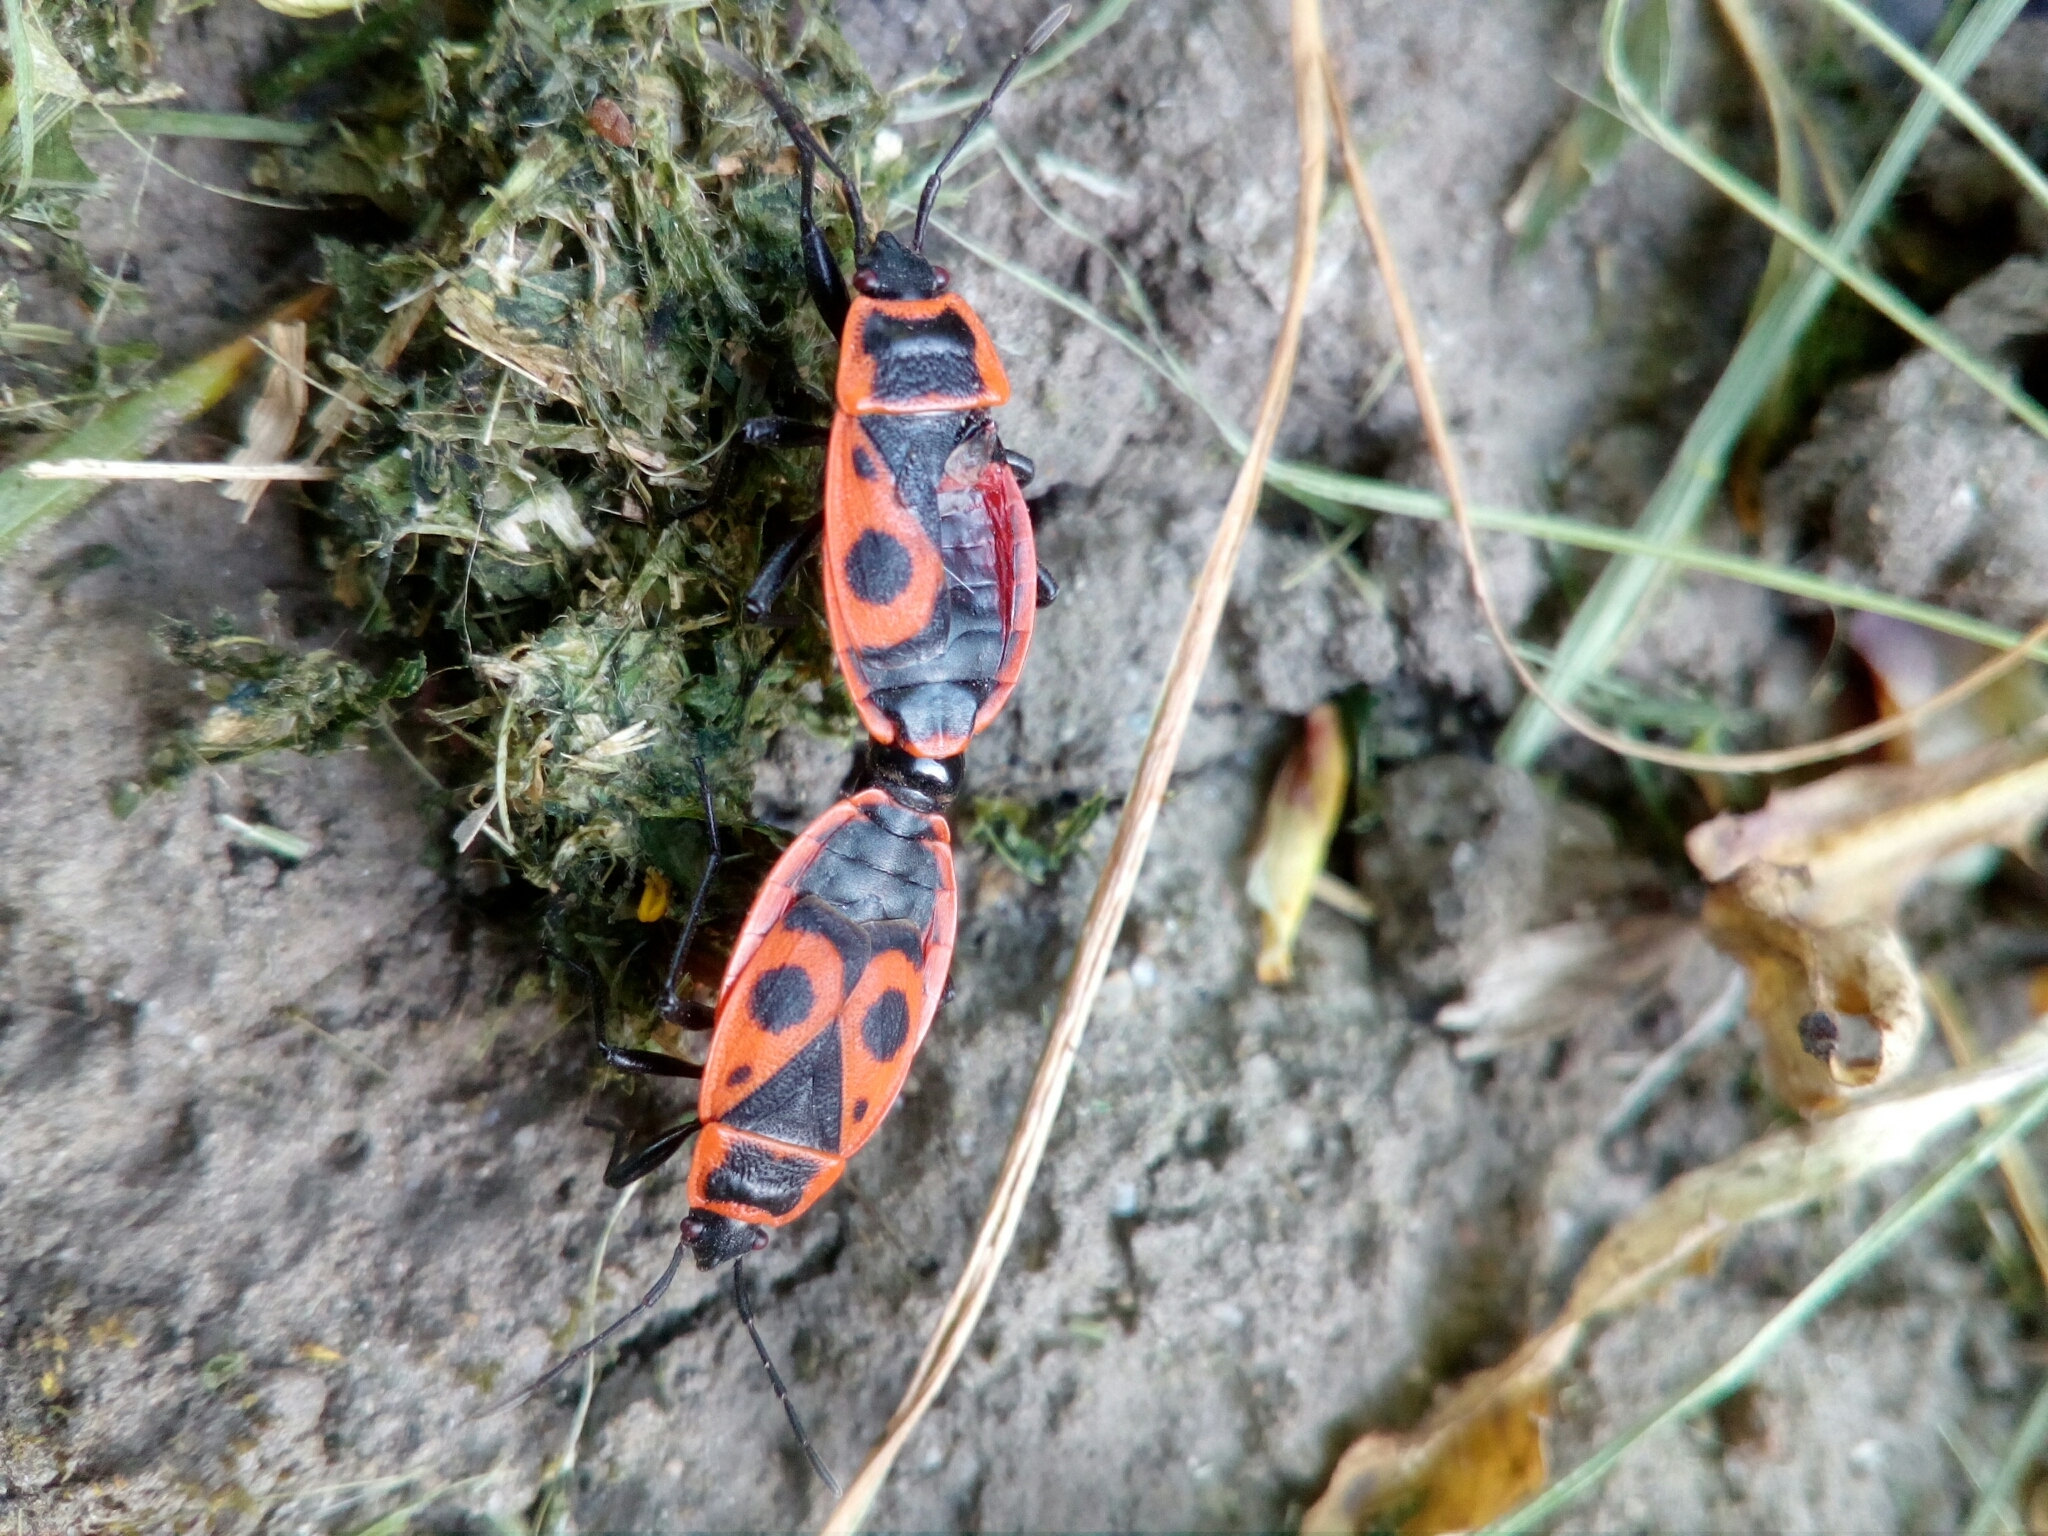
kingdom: Animalia
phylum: Arthropoda
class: Insecta
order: Hemiptera
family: Pyrrhocoridae
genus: Pyrrhocoris
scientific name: Pyrrhocoris apterus
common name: Firebug
